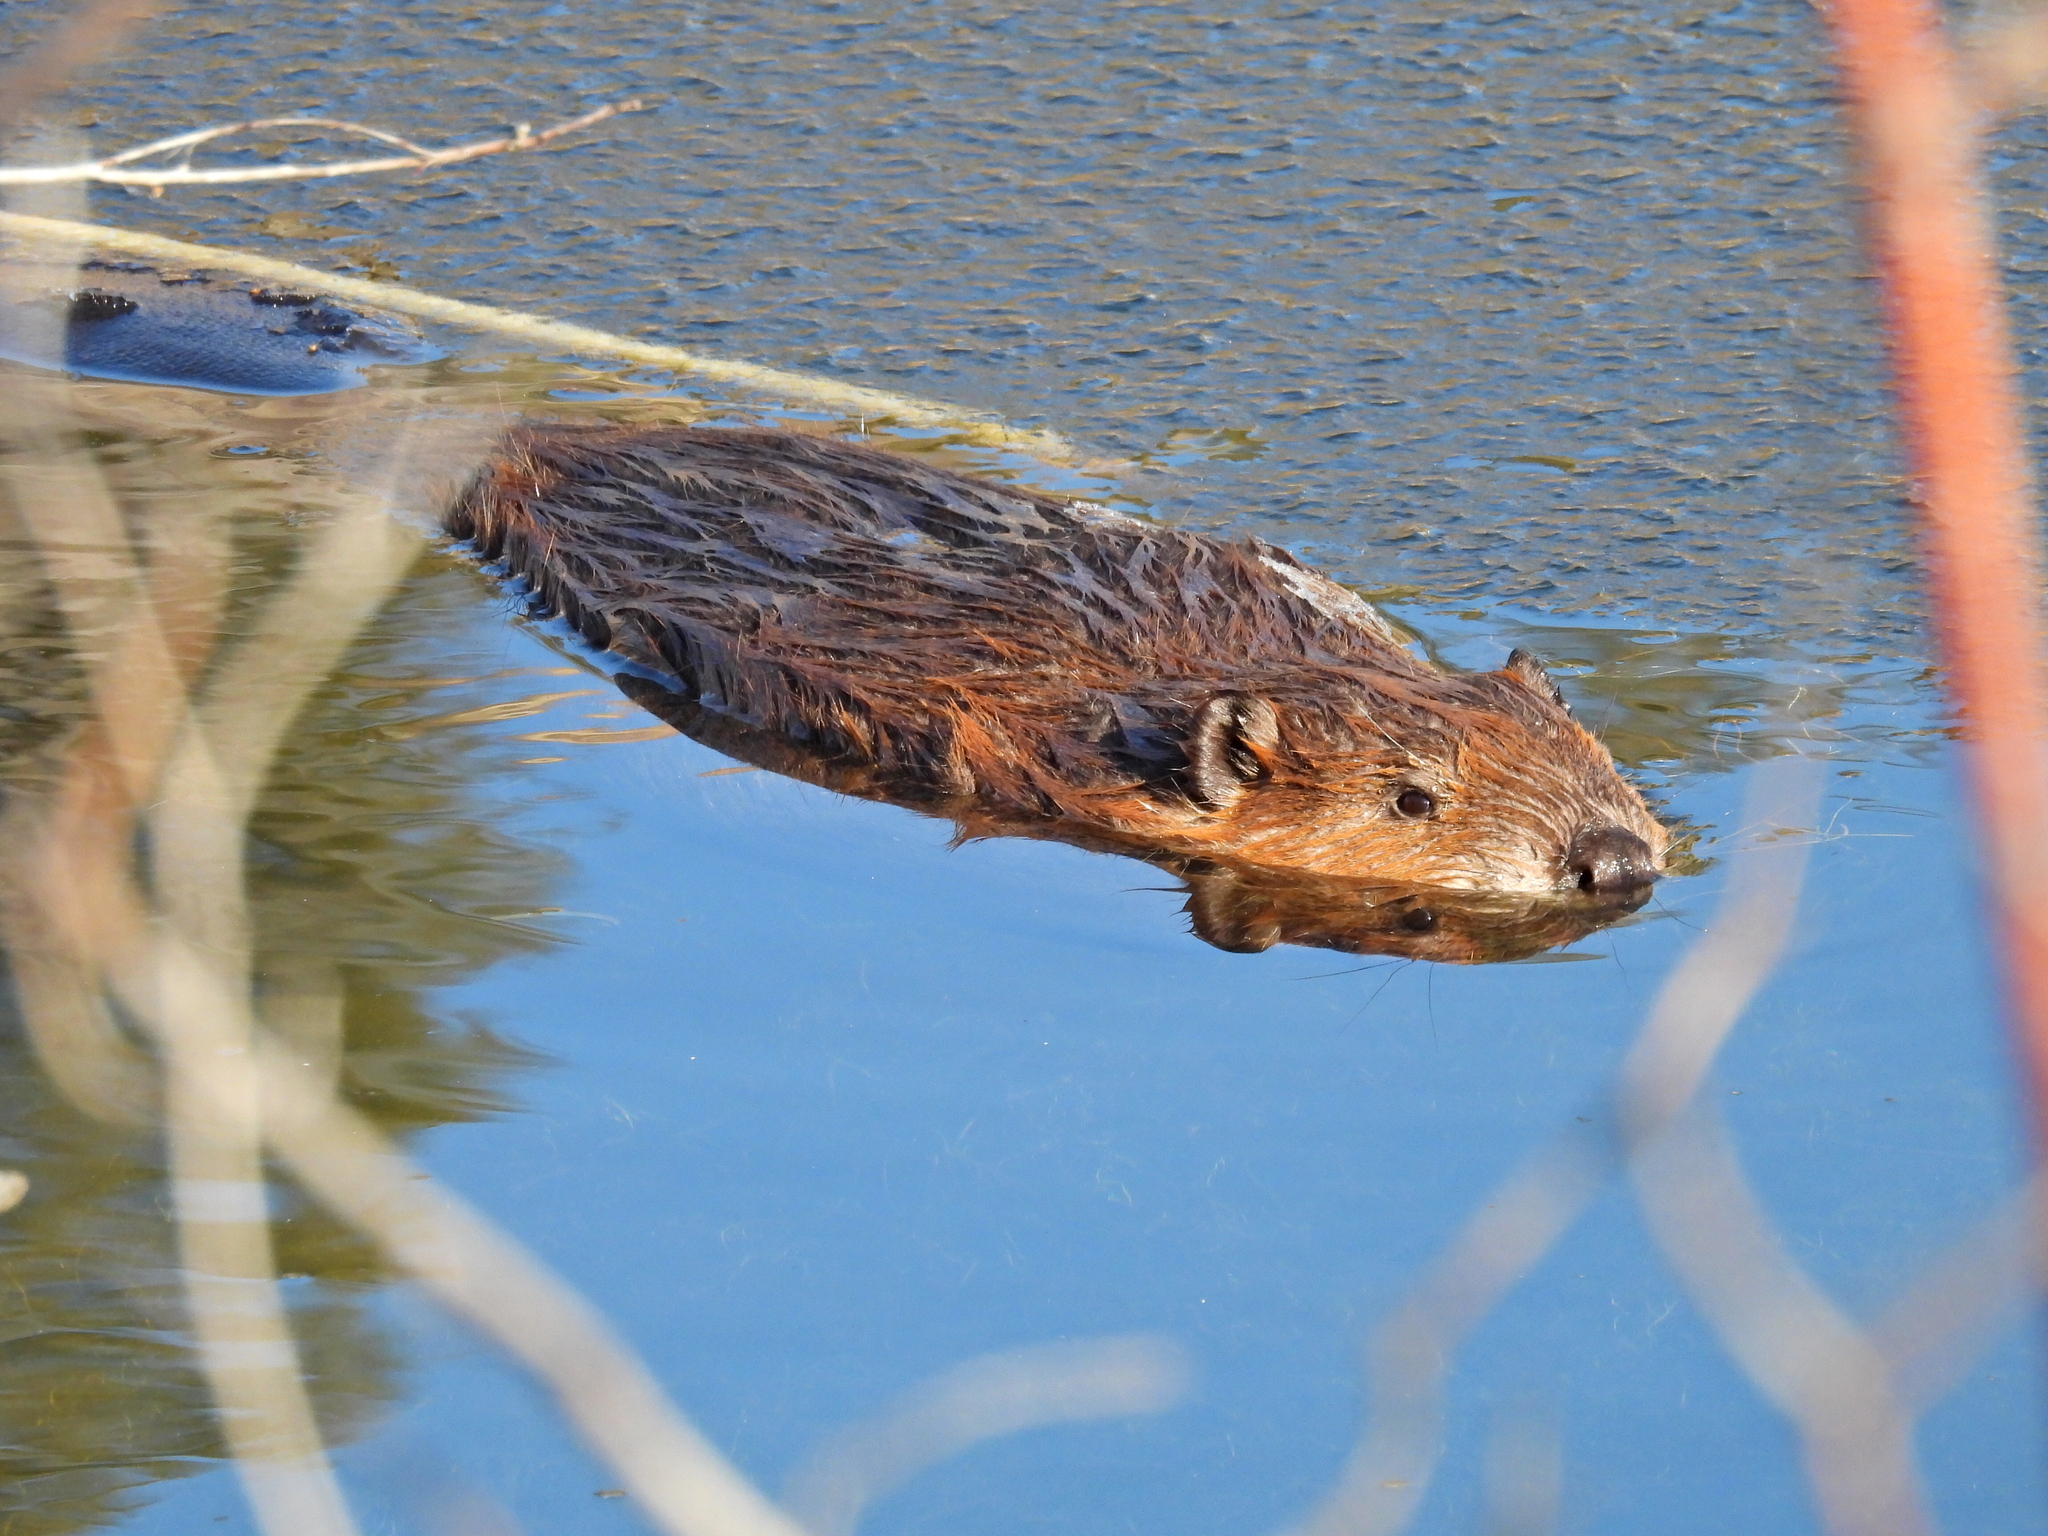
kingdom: Animalia
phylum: Chordata
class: Mammalia
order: Rodentia
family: Castoridae
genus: Castor
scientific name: Castor canadensis
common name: American beaver
